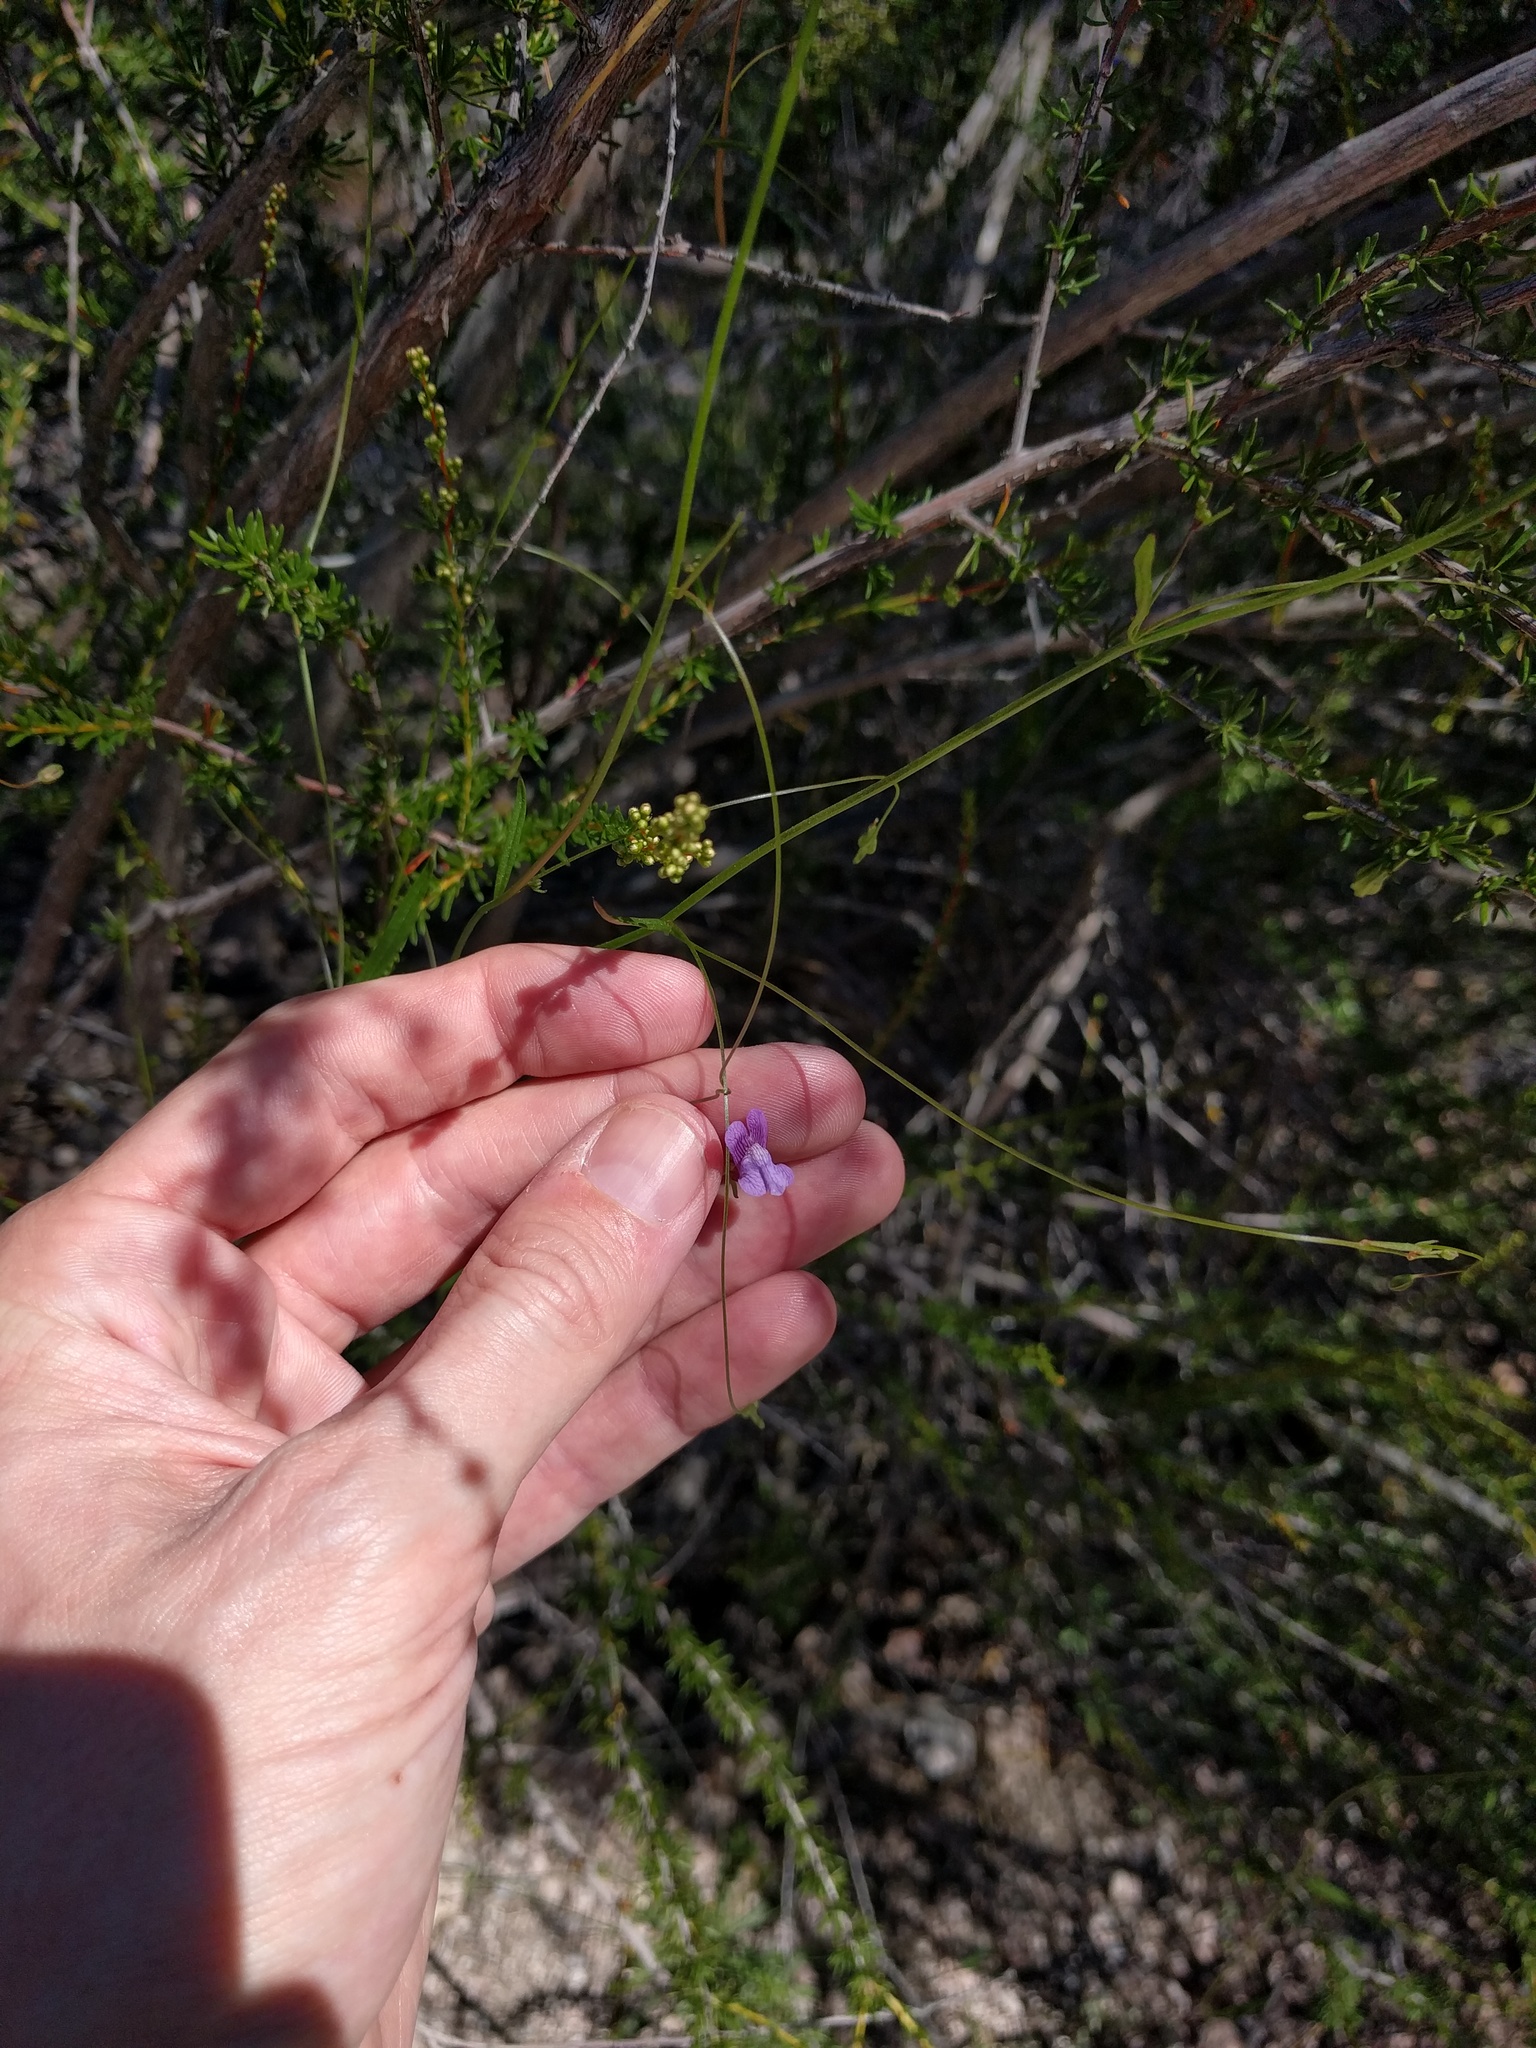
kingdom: Plantae
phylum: Tracheophyta
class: Magnoliopsida
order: Lamiales
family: Plantaginaceae
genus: Neogaerrhinum
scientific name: Neogaerrhinum strictum
